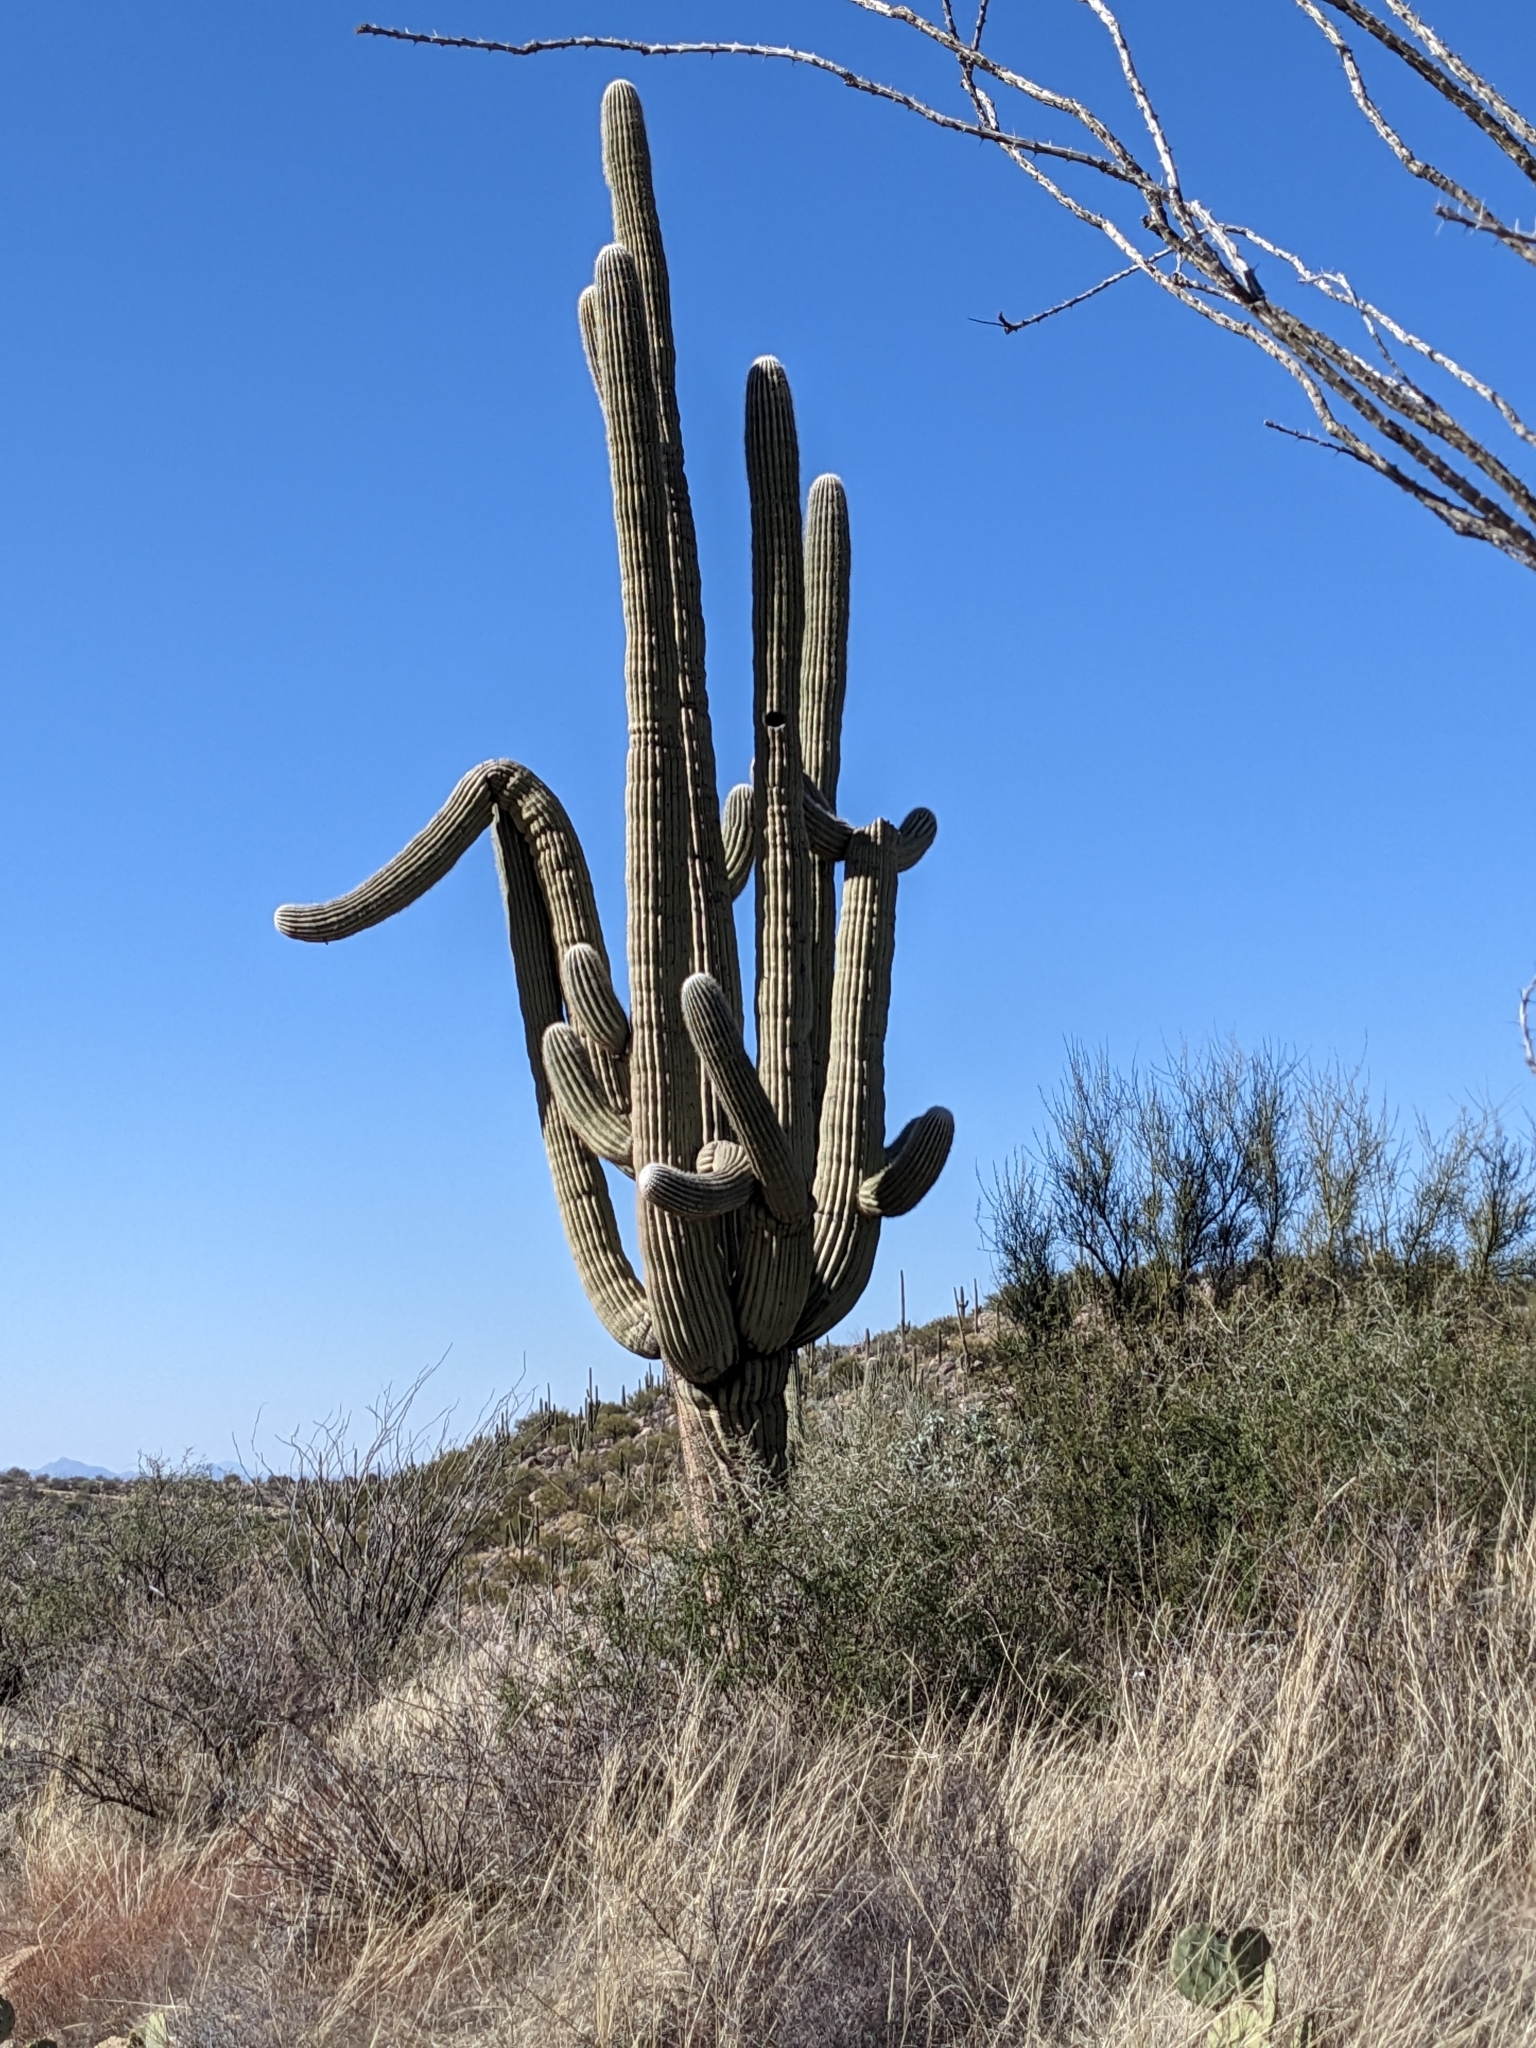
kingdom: Plantae
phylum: Tracheophyta
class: Magnoliopsida
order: Caryophyllales
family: Cactaceae
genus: Carnegiea
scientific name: Carnegiea gigantea
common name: Saguaro
